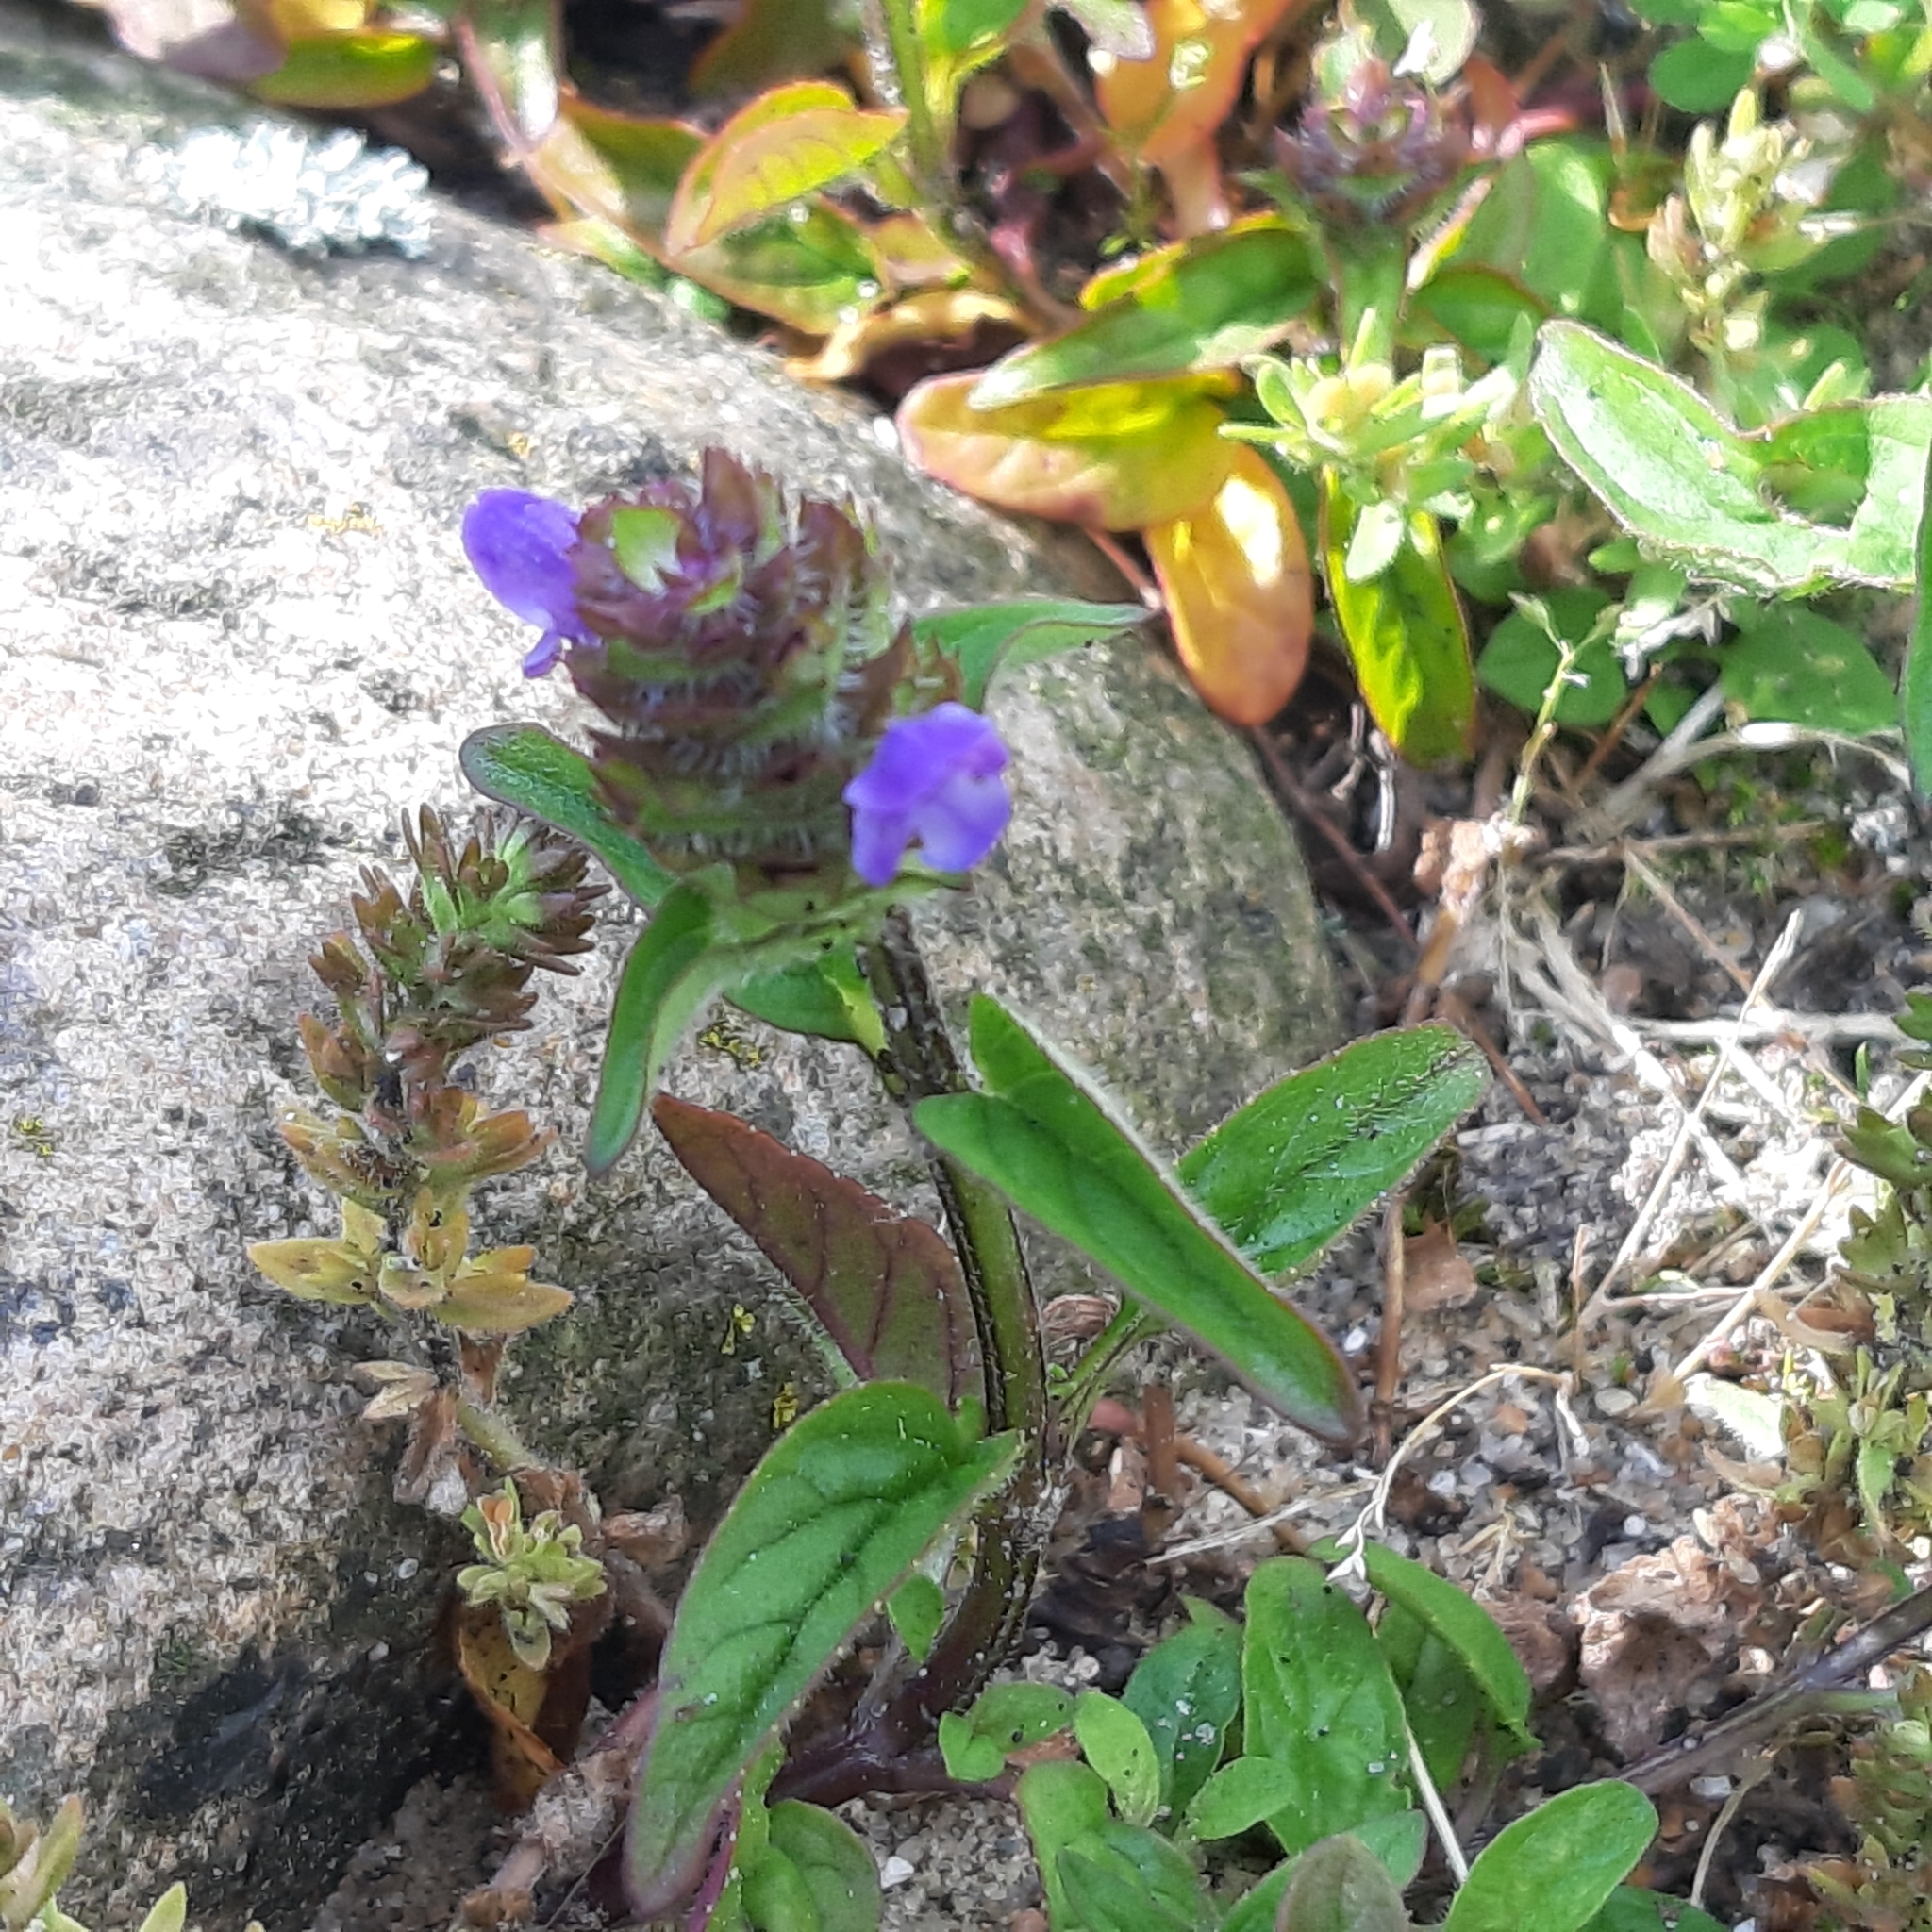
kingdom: Plantae
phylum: Tracheophyta
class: Magnoliopsida
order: Lamiales
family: Lamiaceae
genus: Prunella
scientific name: Prunella vulgaris
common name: Heal-all
